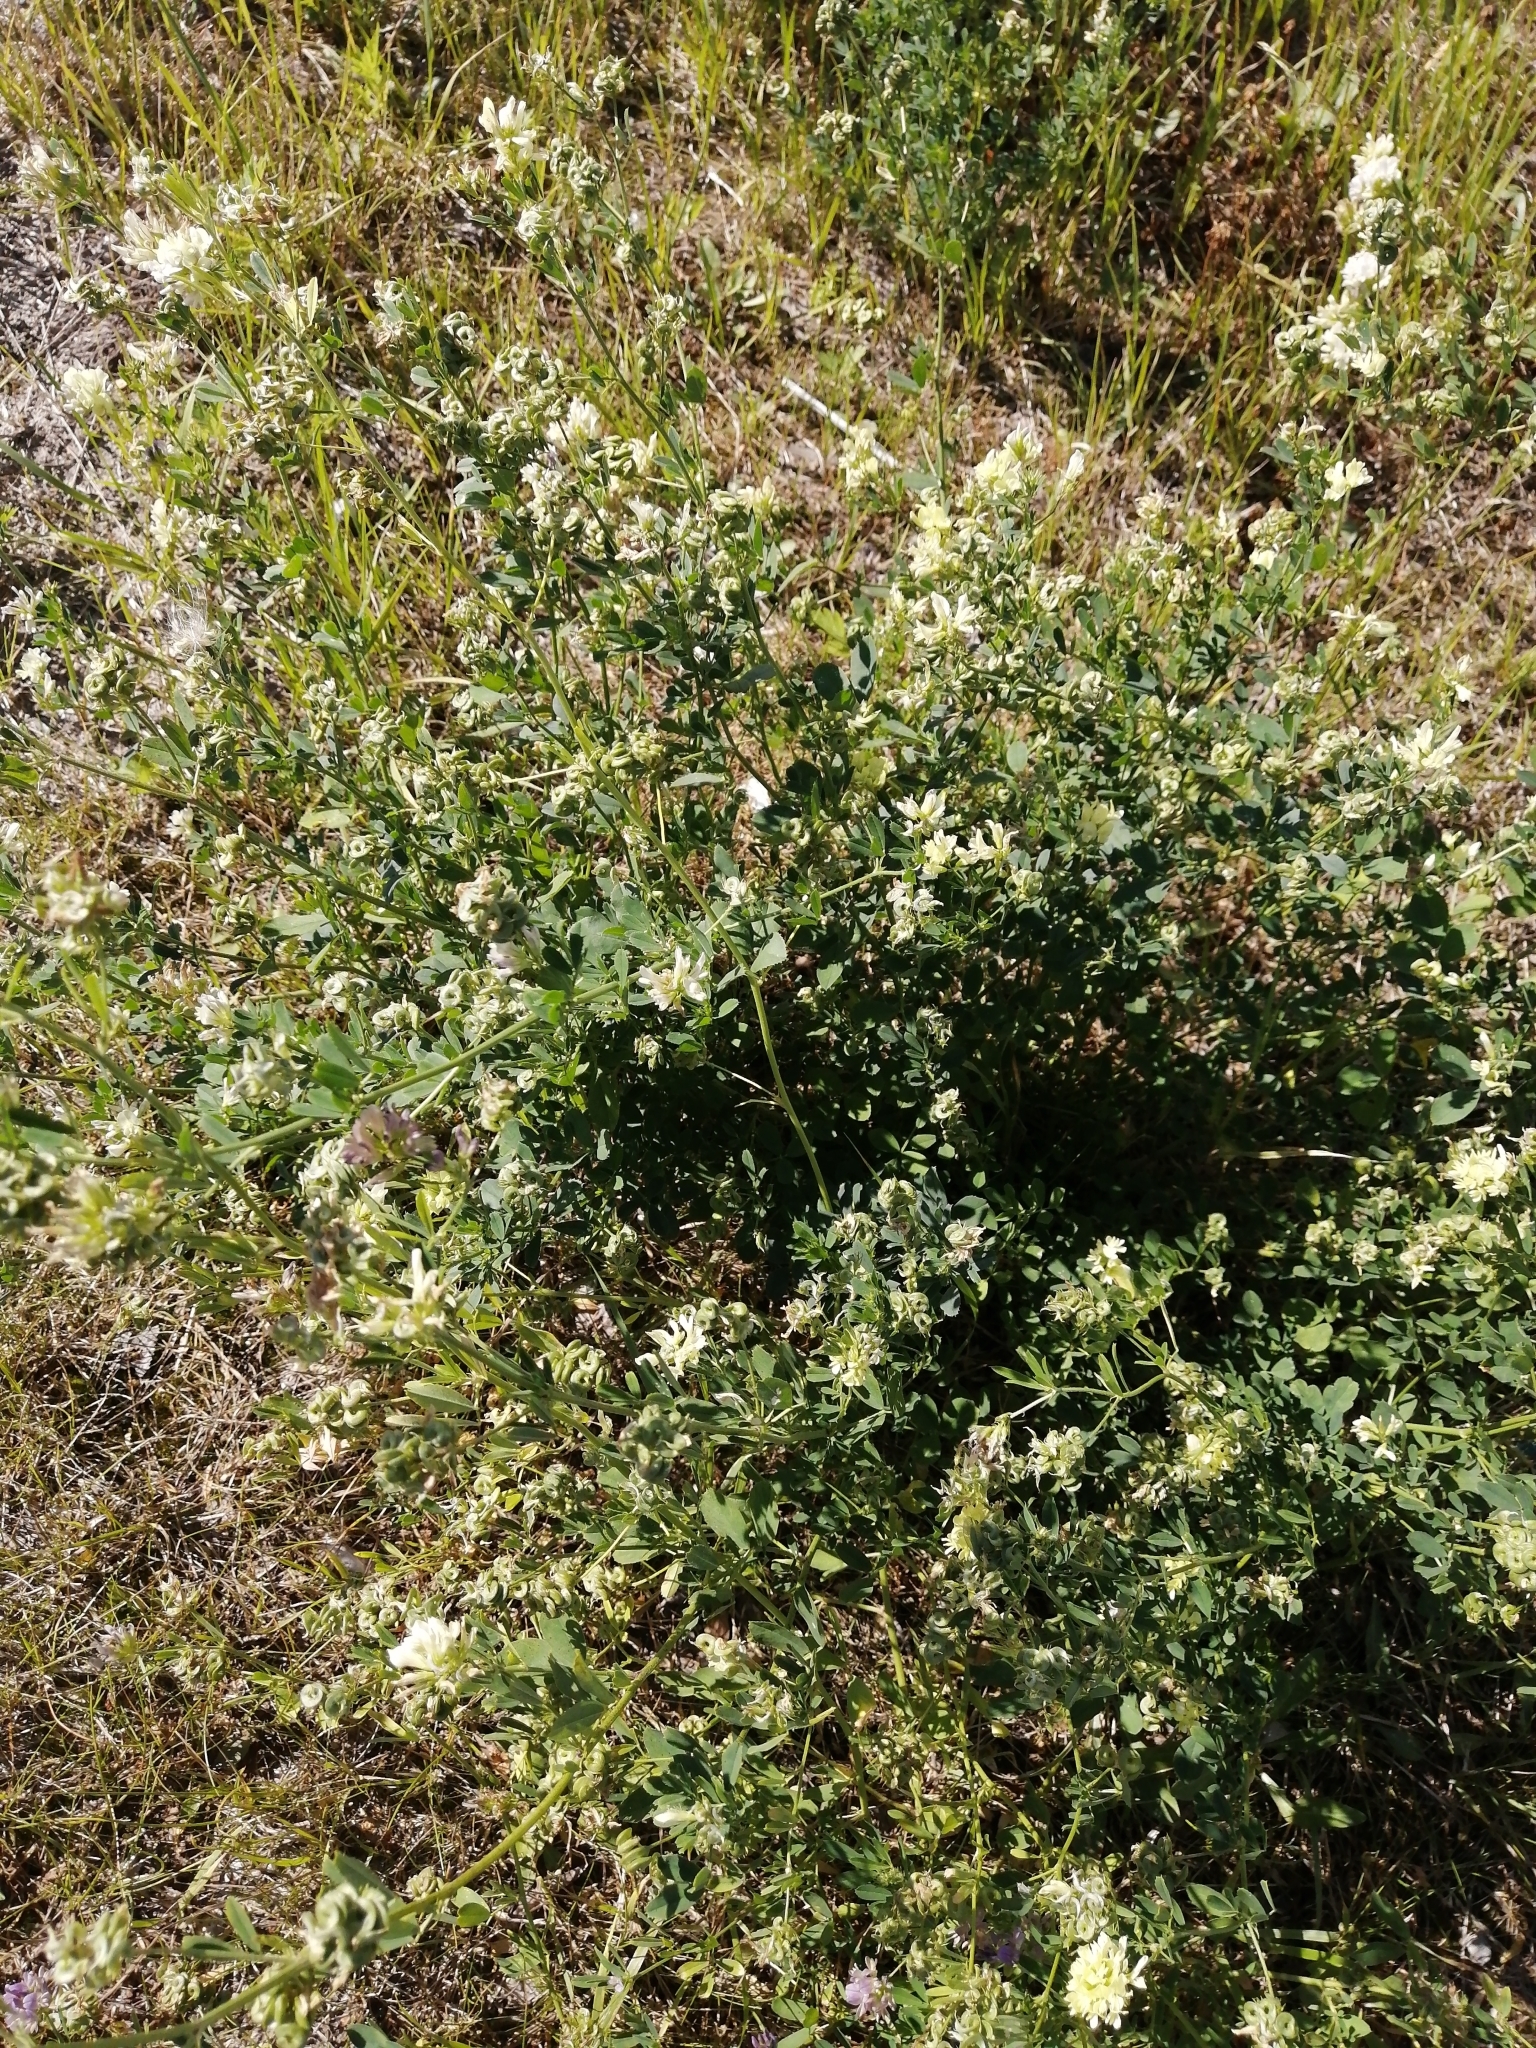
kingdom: Plantae
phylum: Tracheophyta
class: Magnoliopsida
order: Fabales
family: Fabaceae
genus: Medicago
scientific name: Medicago varia
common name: Sand lucerne
